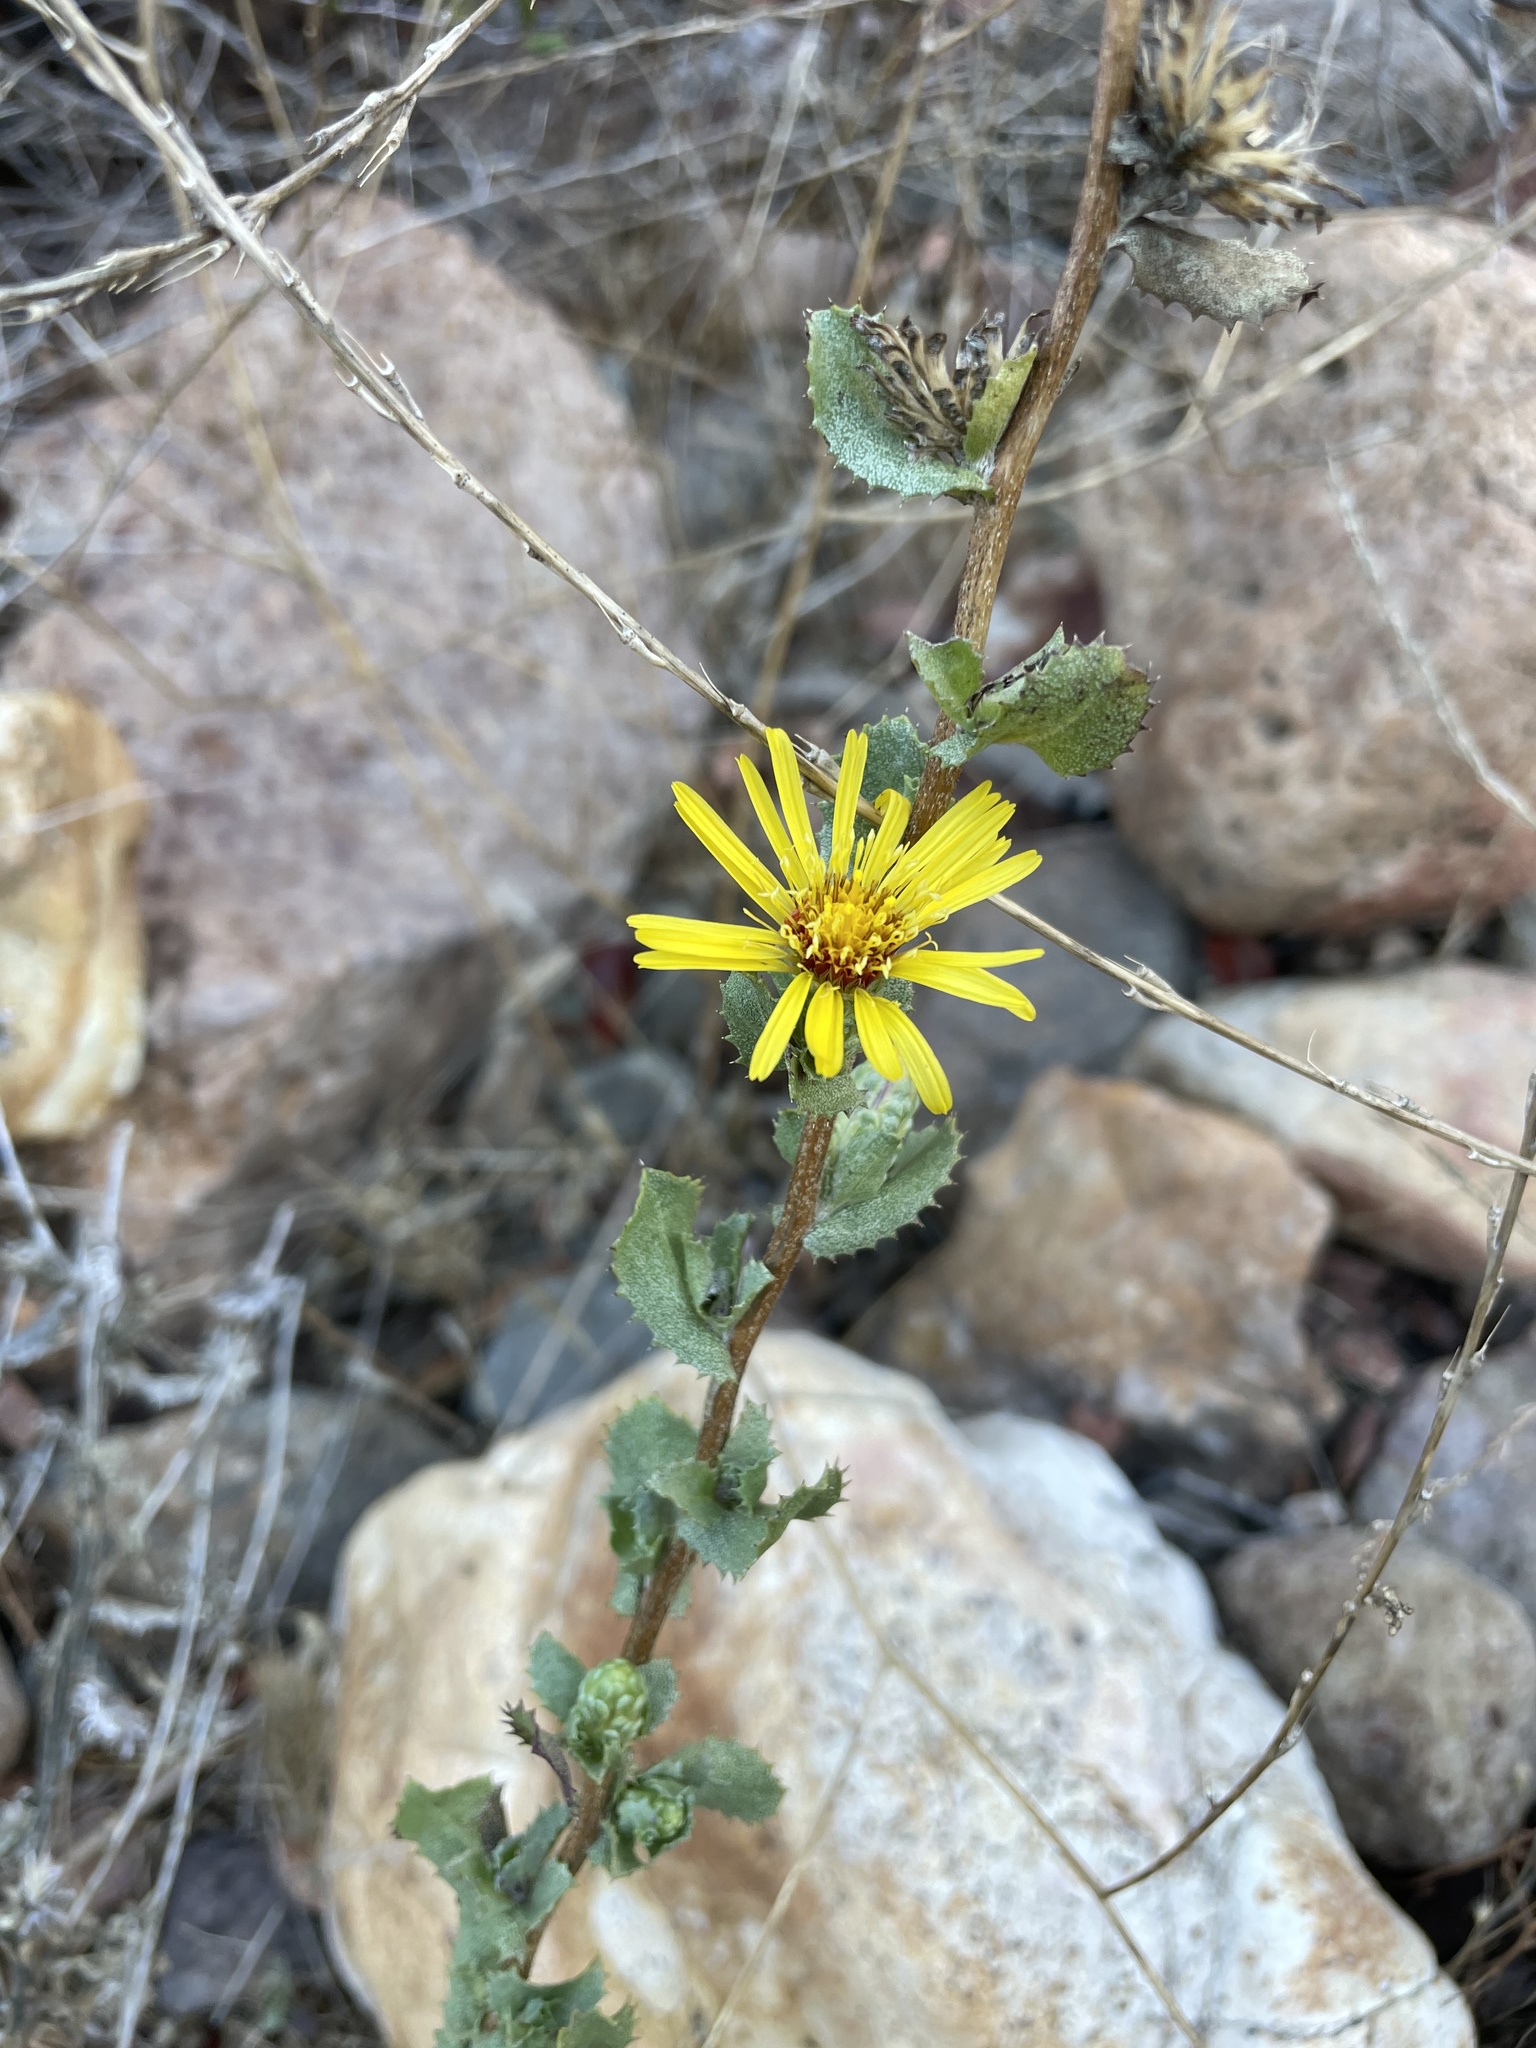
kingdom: Plantae
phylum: Tracheophyta
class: Magnoliopsida
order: Asterales
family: Asteraceae
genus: Hazardia
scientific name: Hazardia berberidis
